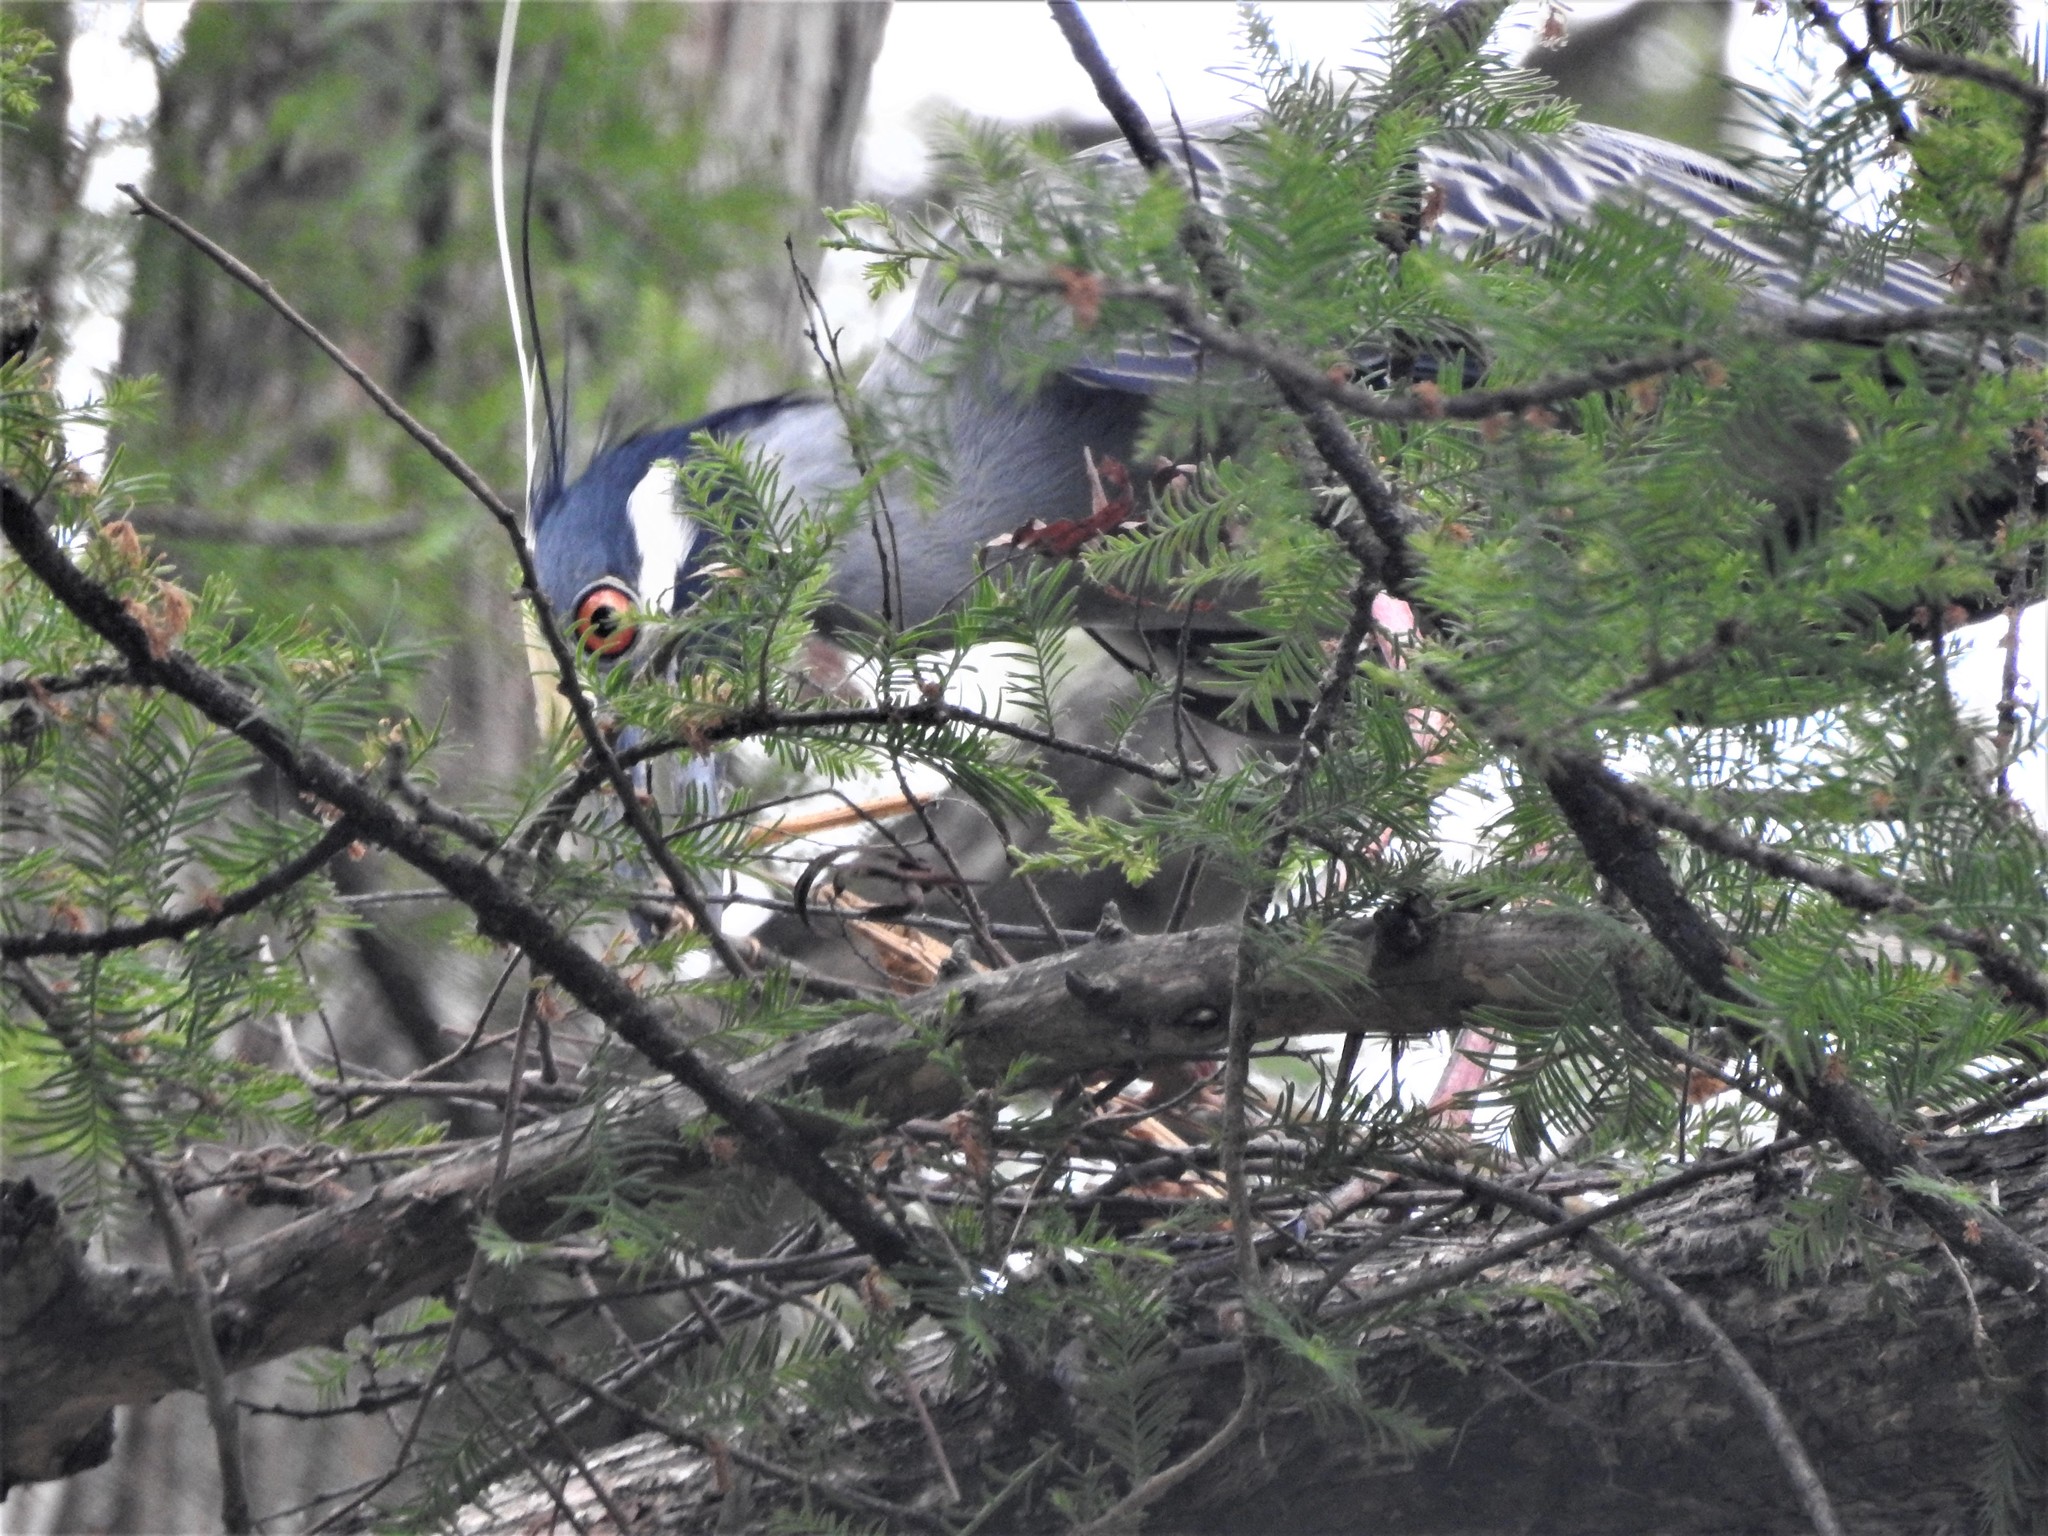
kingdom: Animalia
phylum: Chordata
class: Aves
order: Pelecaniformes
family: Ardeidae
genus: Nyctanassa
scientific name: Nyctanassa violacea
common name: Yellow-crowned night heron
